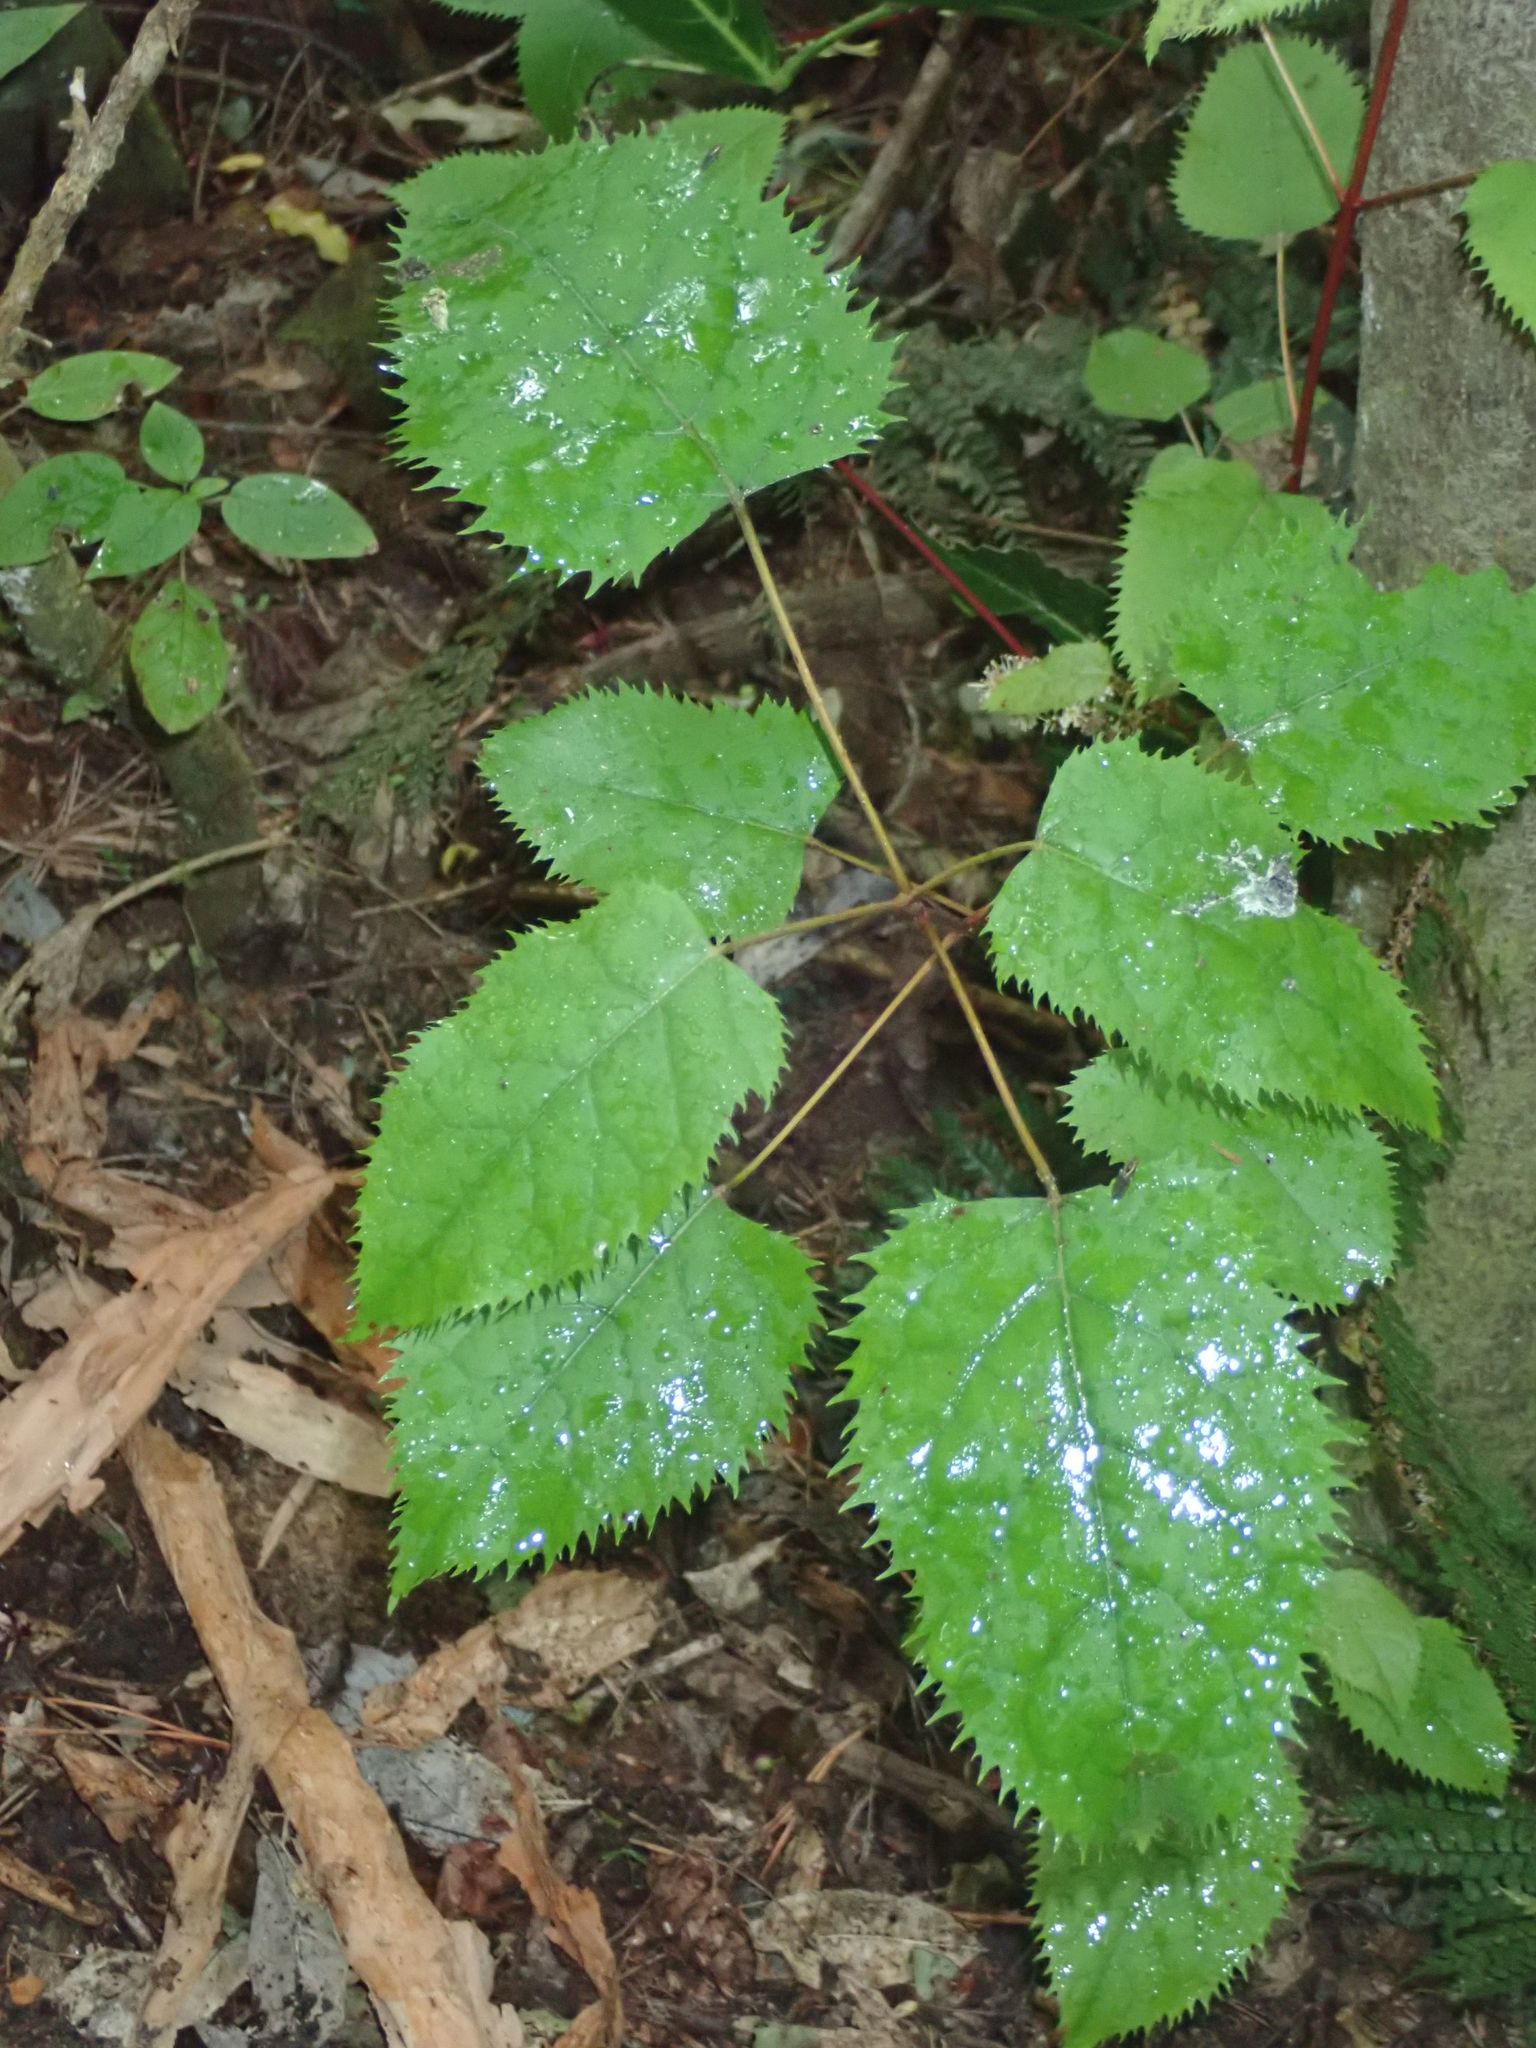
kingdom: Plantae
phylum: Tracheophyta
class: Magnoliopsida
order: Oxalidales
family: Elaeocarpaceae
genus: Aristotelia
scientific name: Aristotelia serrata
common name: New zealand wineberry
